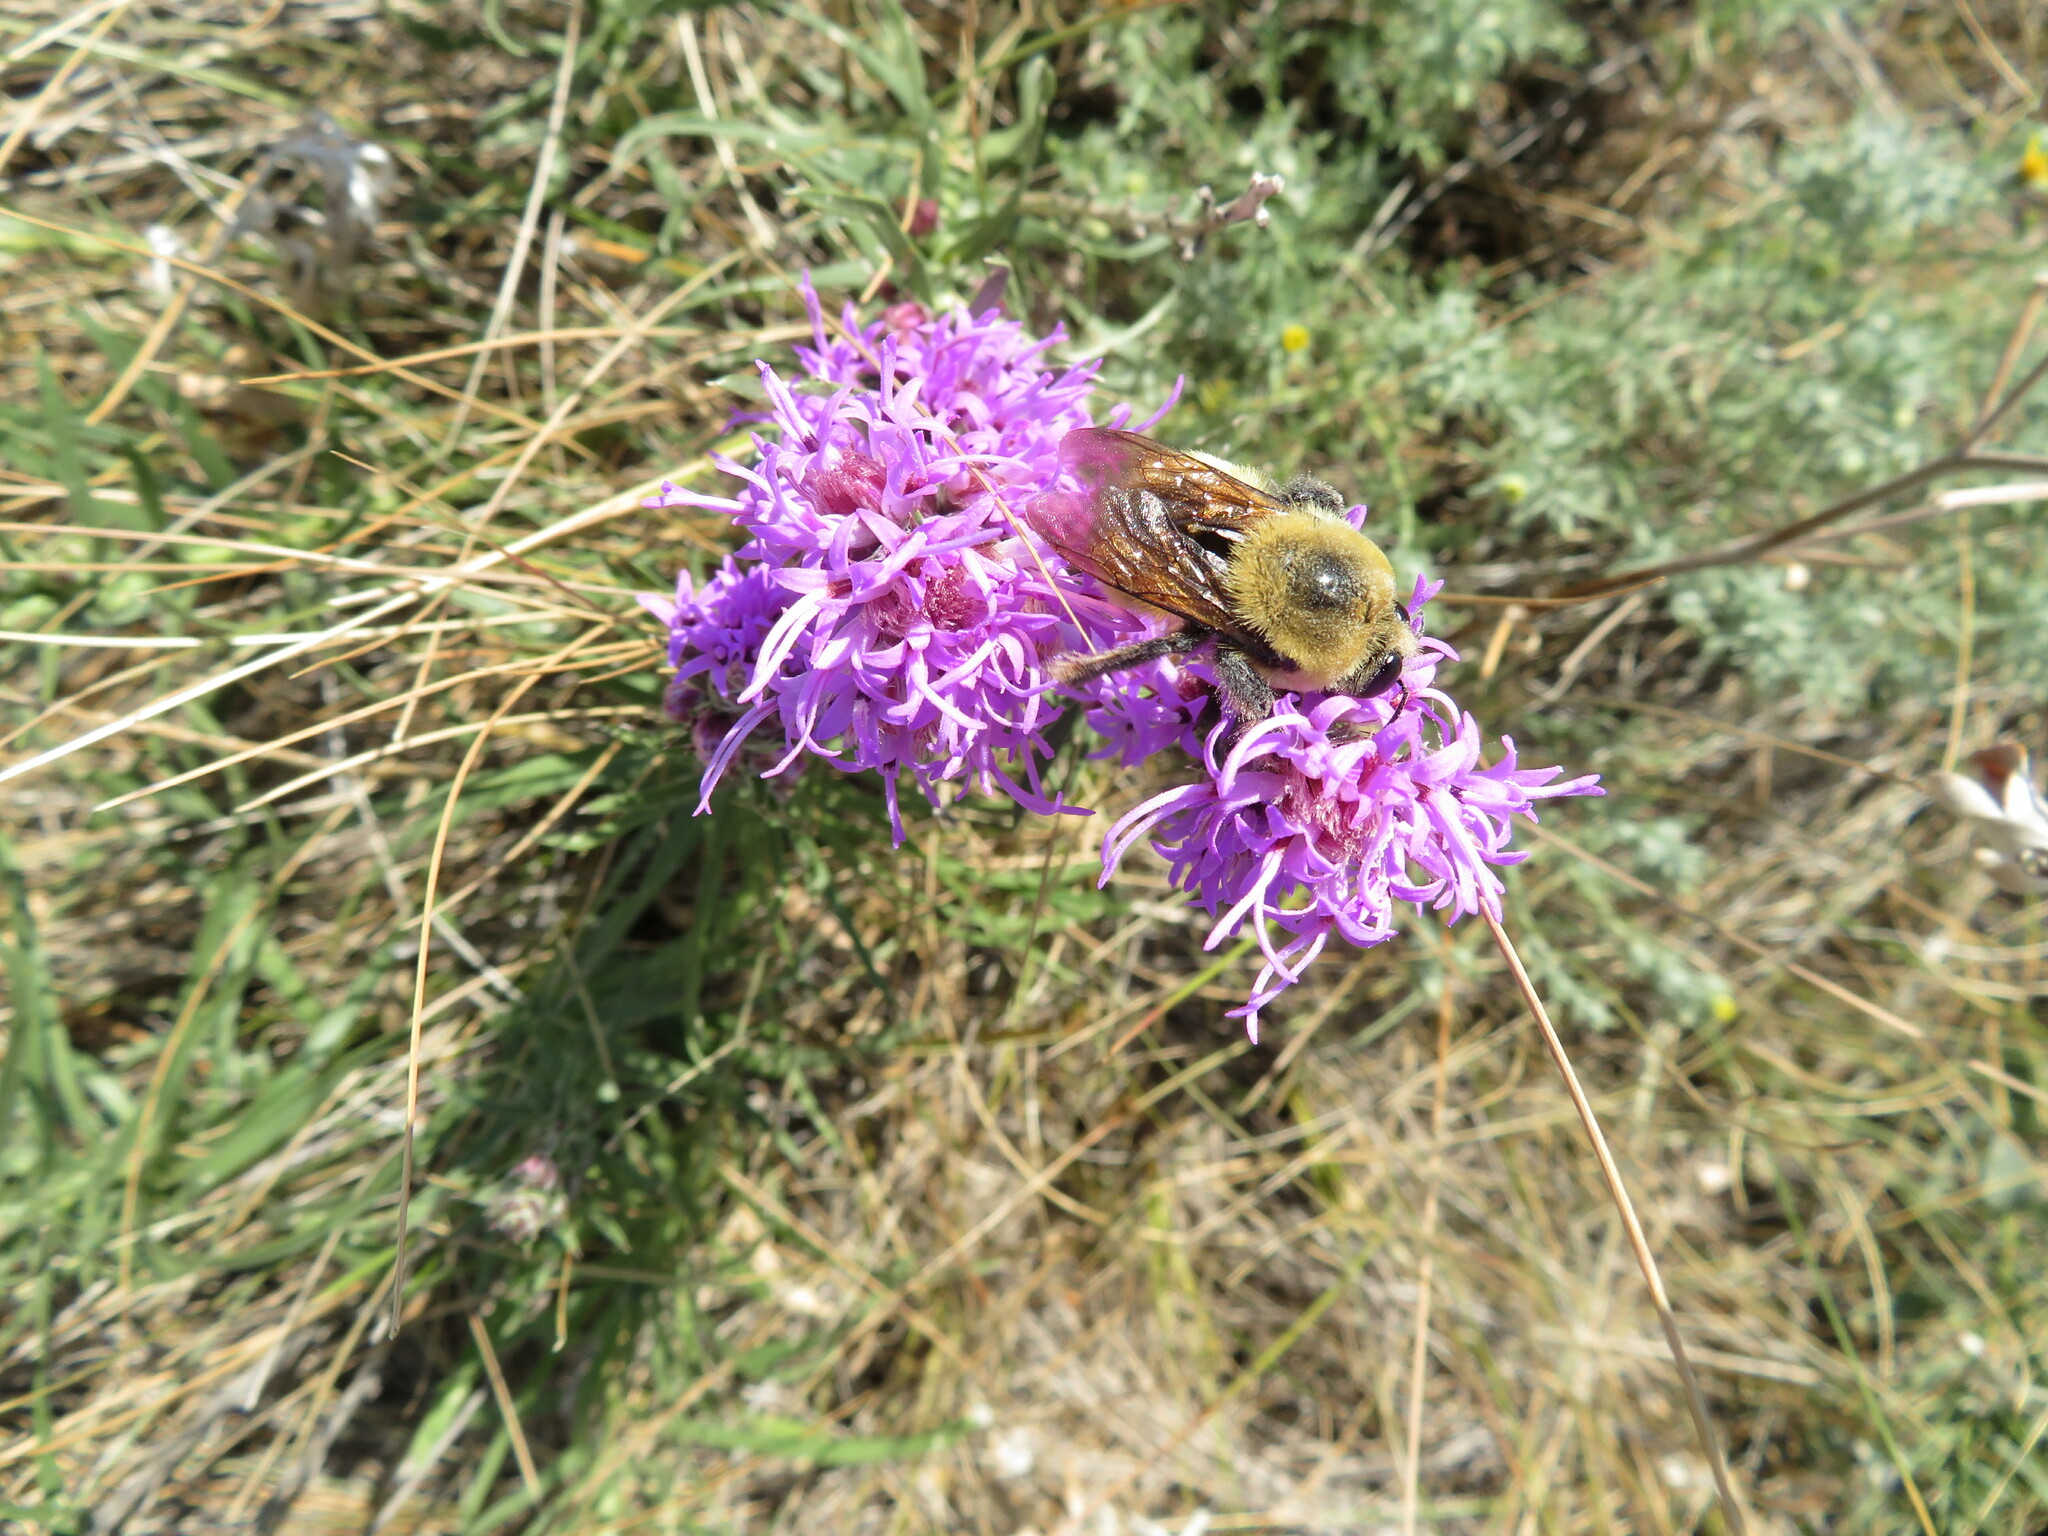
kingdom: Animalia
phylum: Arthropoda
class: Insecta
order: Hymenoptera
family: Apidae
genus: Bombus
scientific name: Bombus nevadensis
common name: Nevada bumble bee
